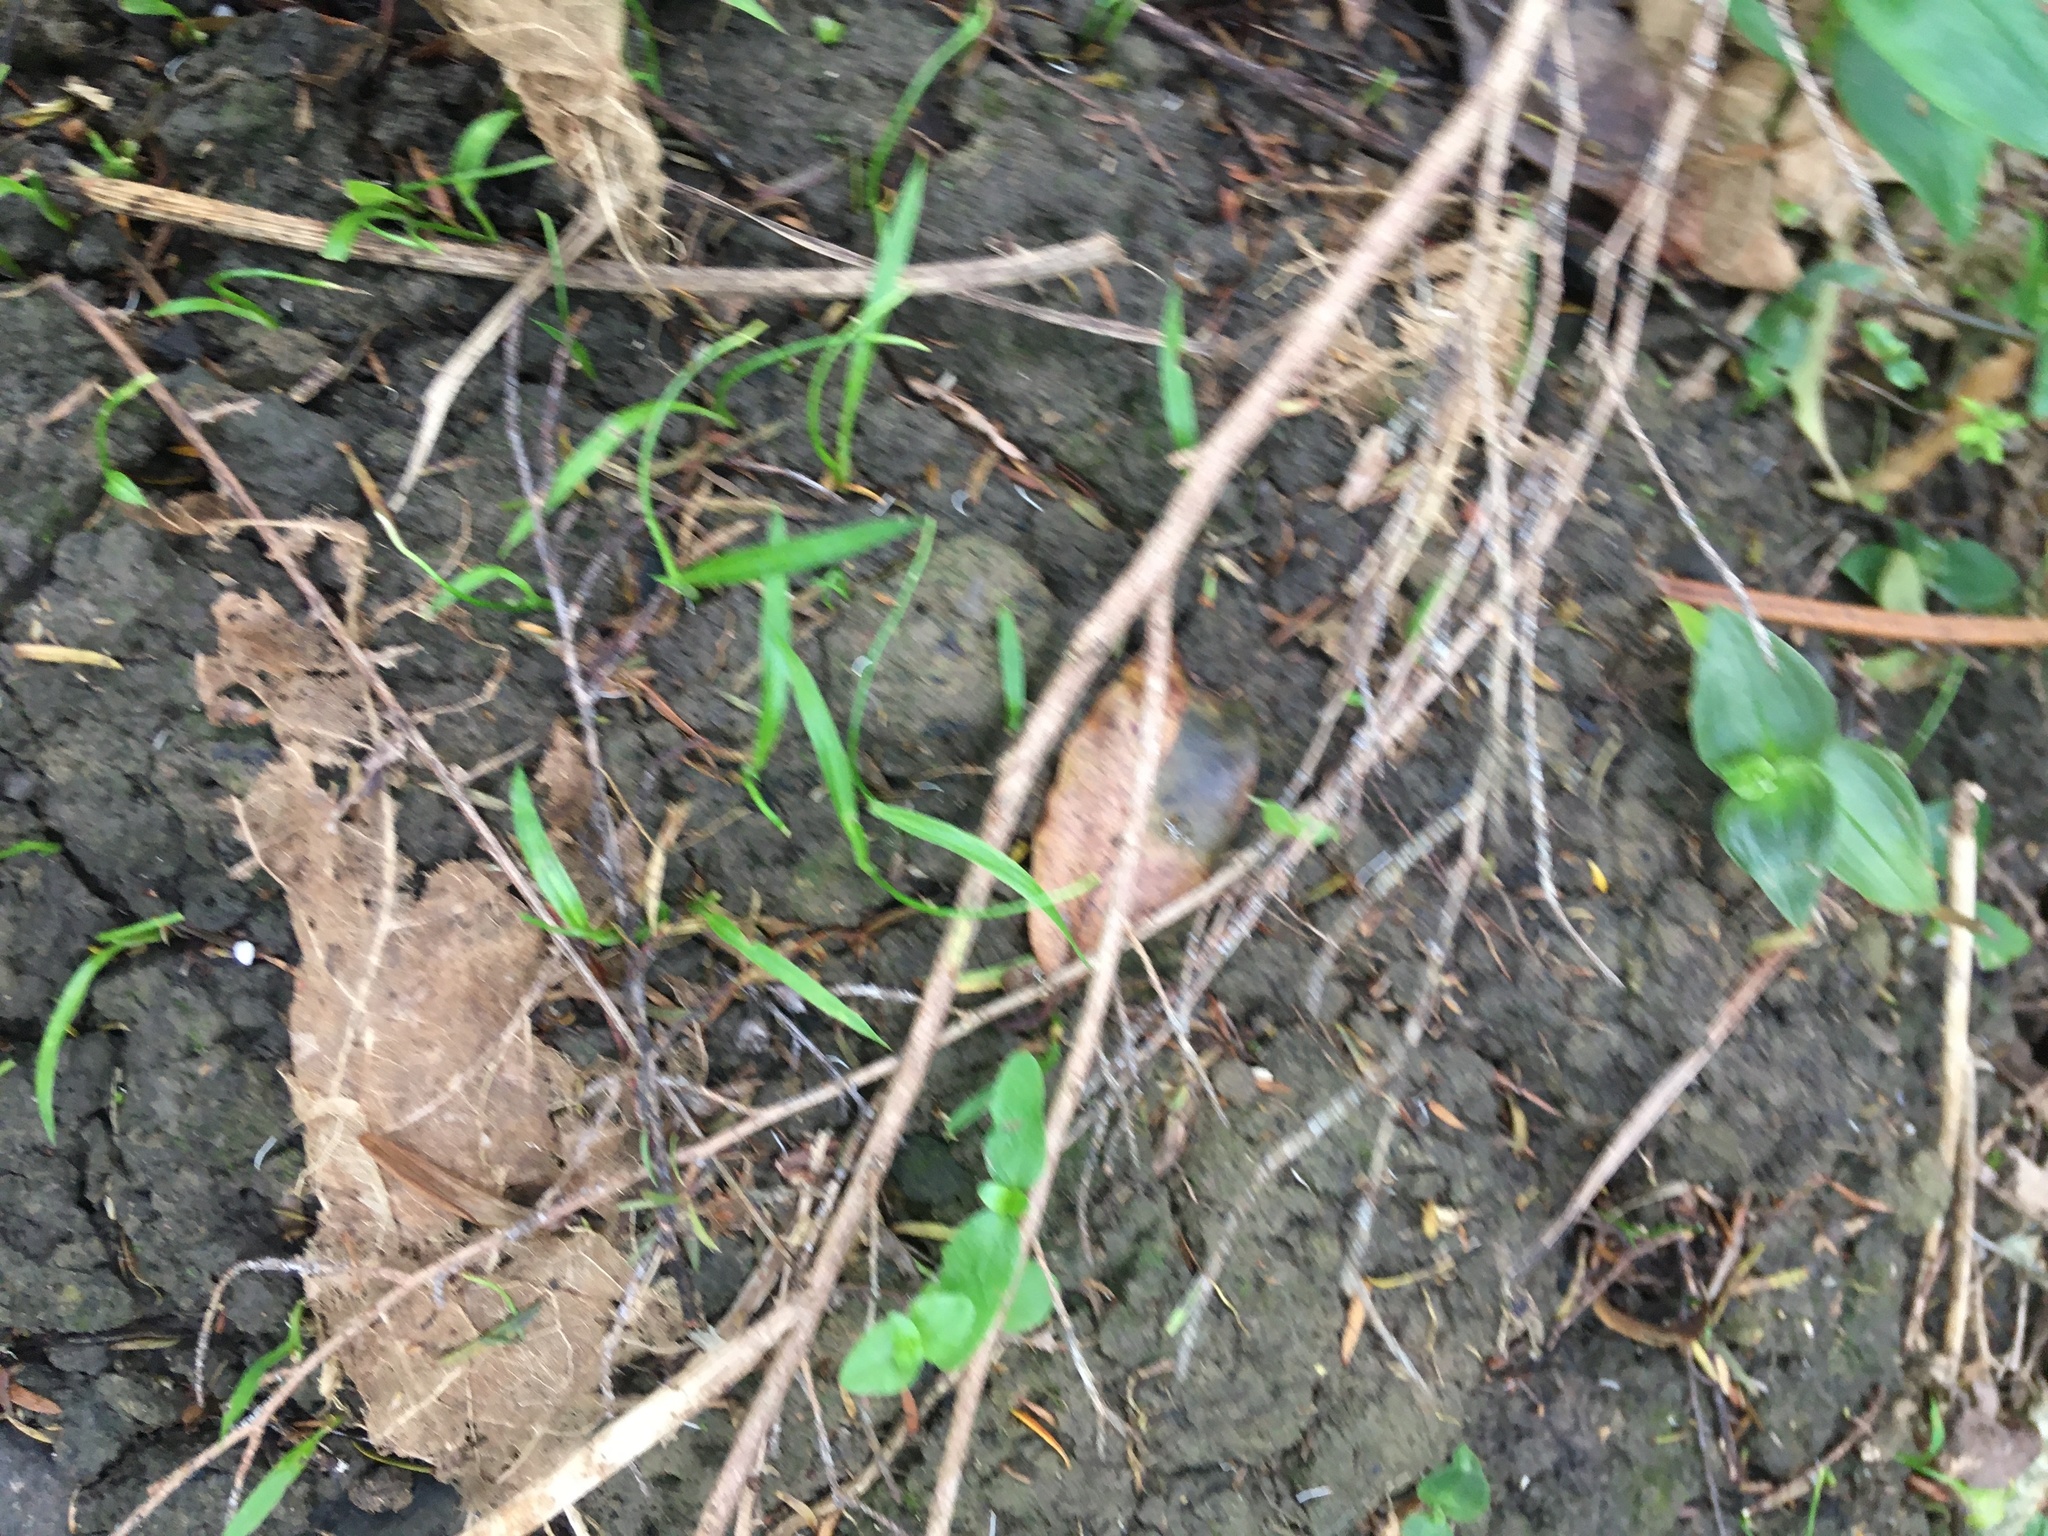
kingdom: Plantae
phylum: Tracheophyta
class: Magnoliopsida
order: Gentianales
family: Rubiaceae
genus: Coprosma
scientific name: Coprosma robusta
